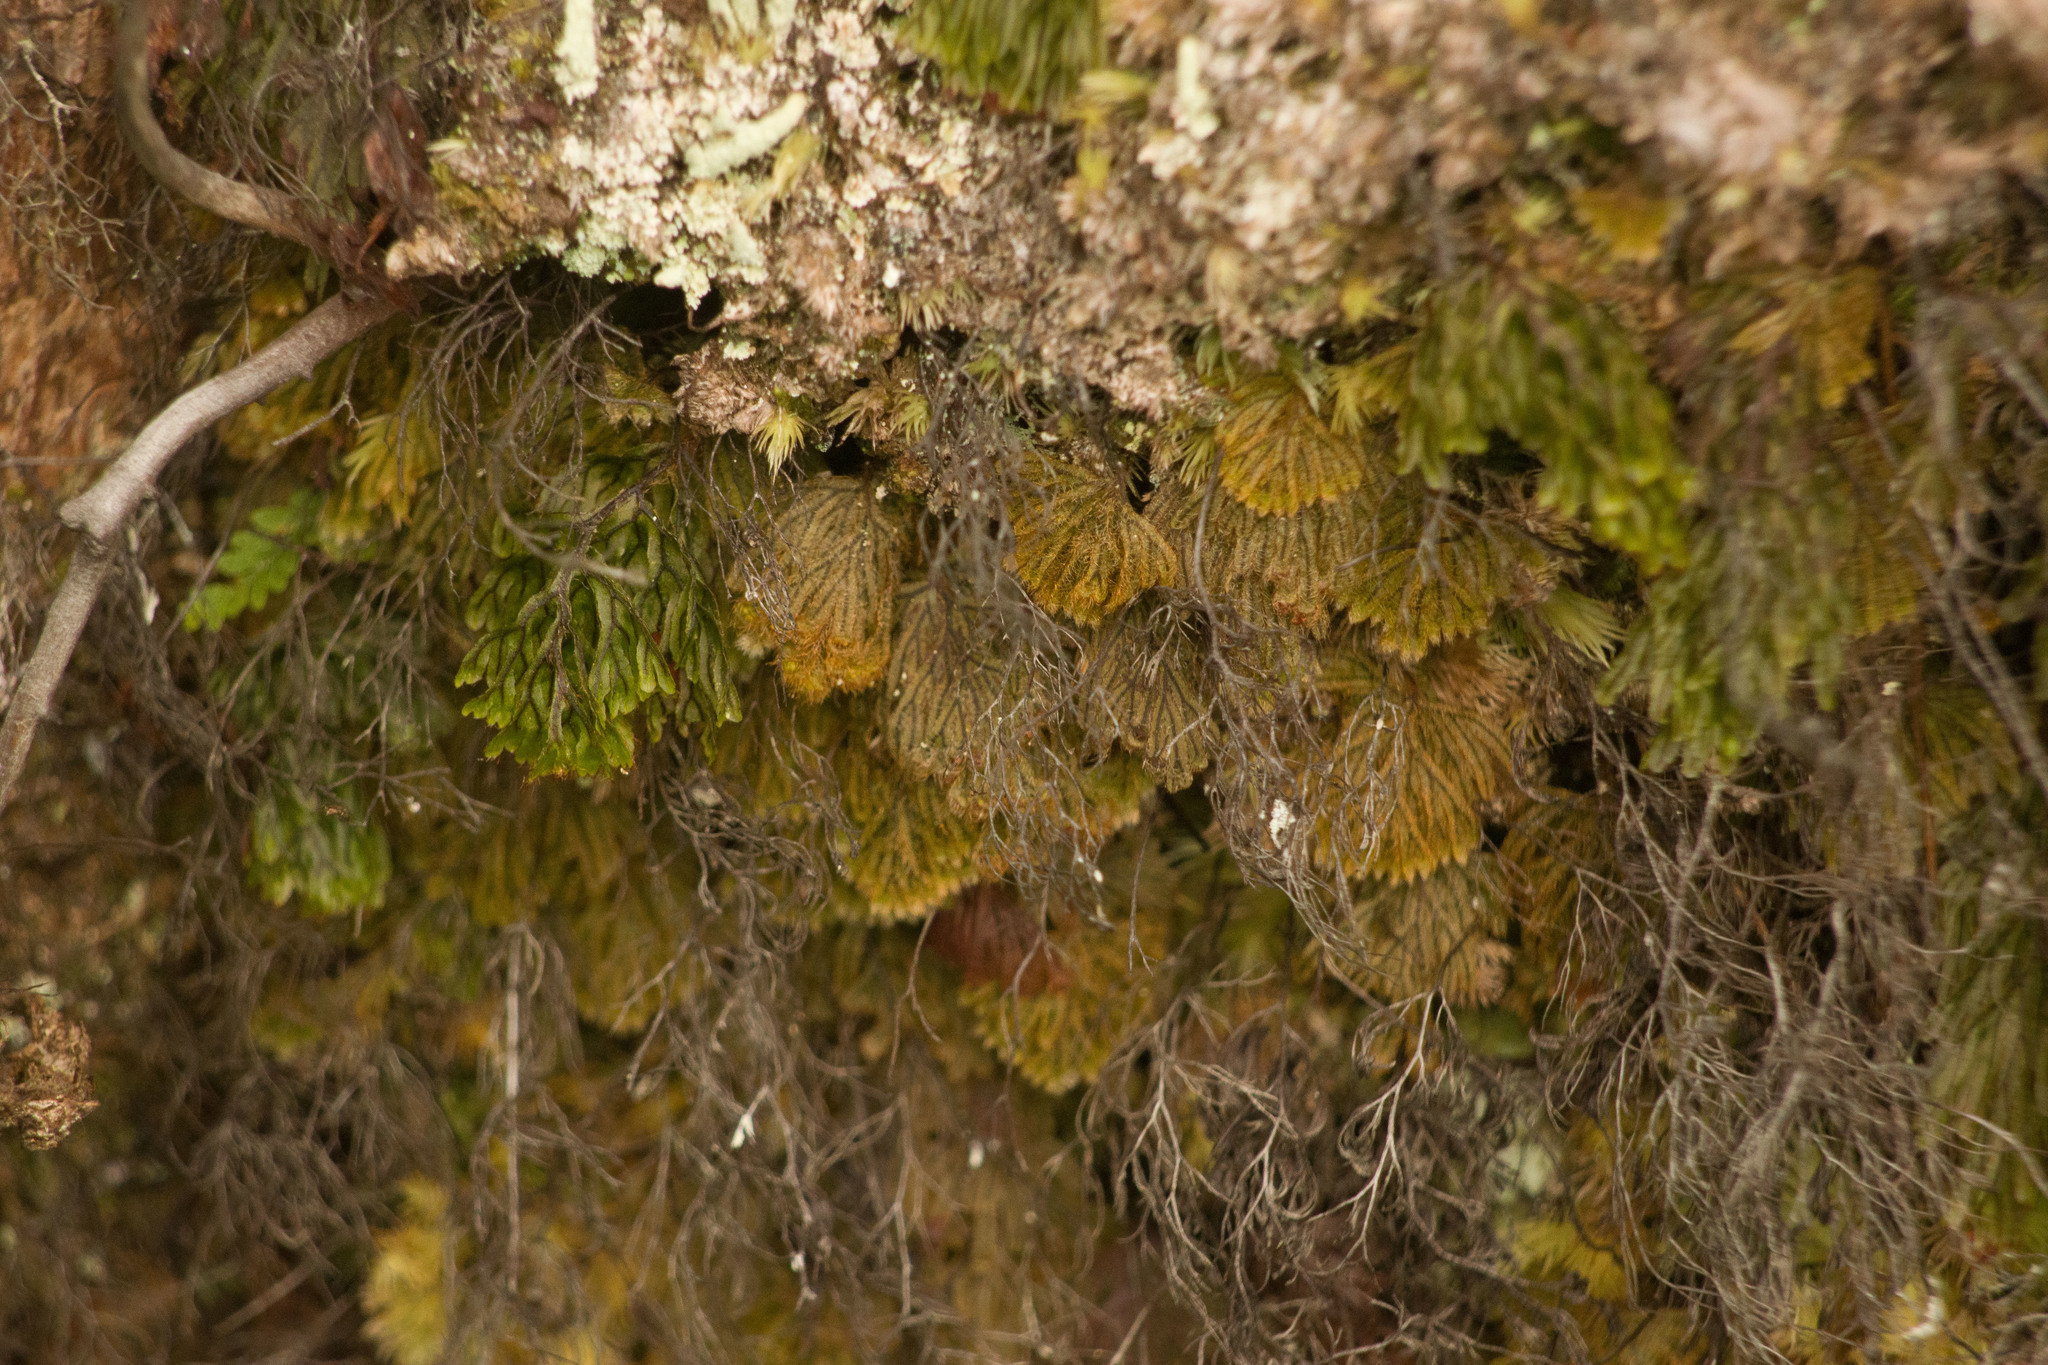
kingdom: Plantae
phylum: Tracheophyta
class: Polypodiopsida
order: Hymenophyllales
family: Hymenophyllaceae
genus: Hymenophyllum
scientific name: Hymenophyllum obtusum
